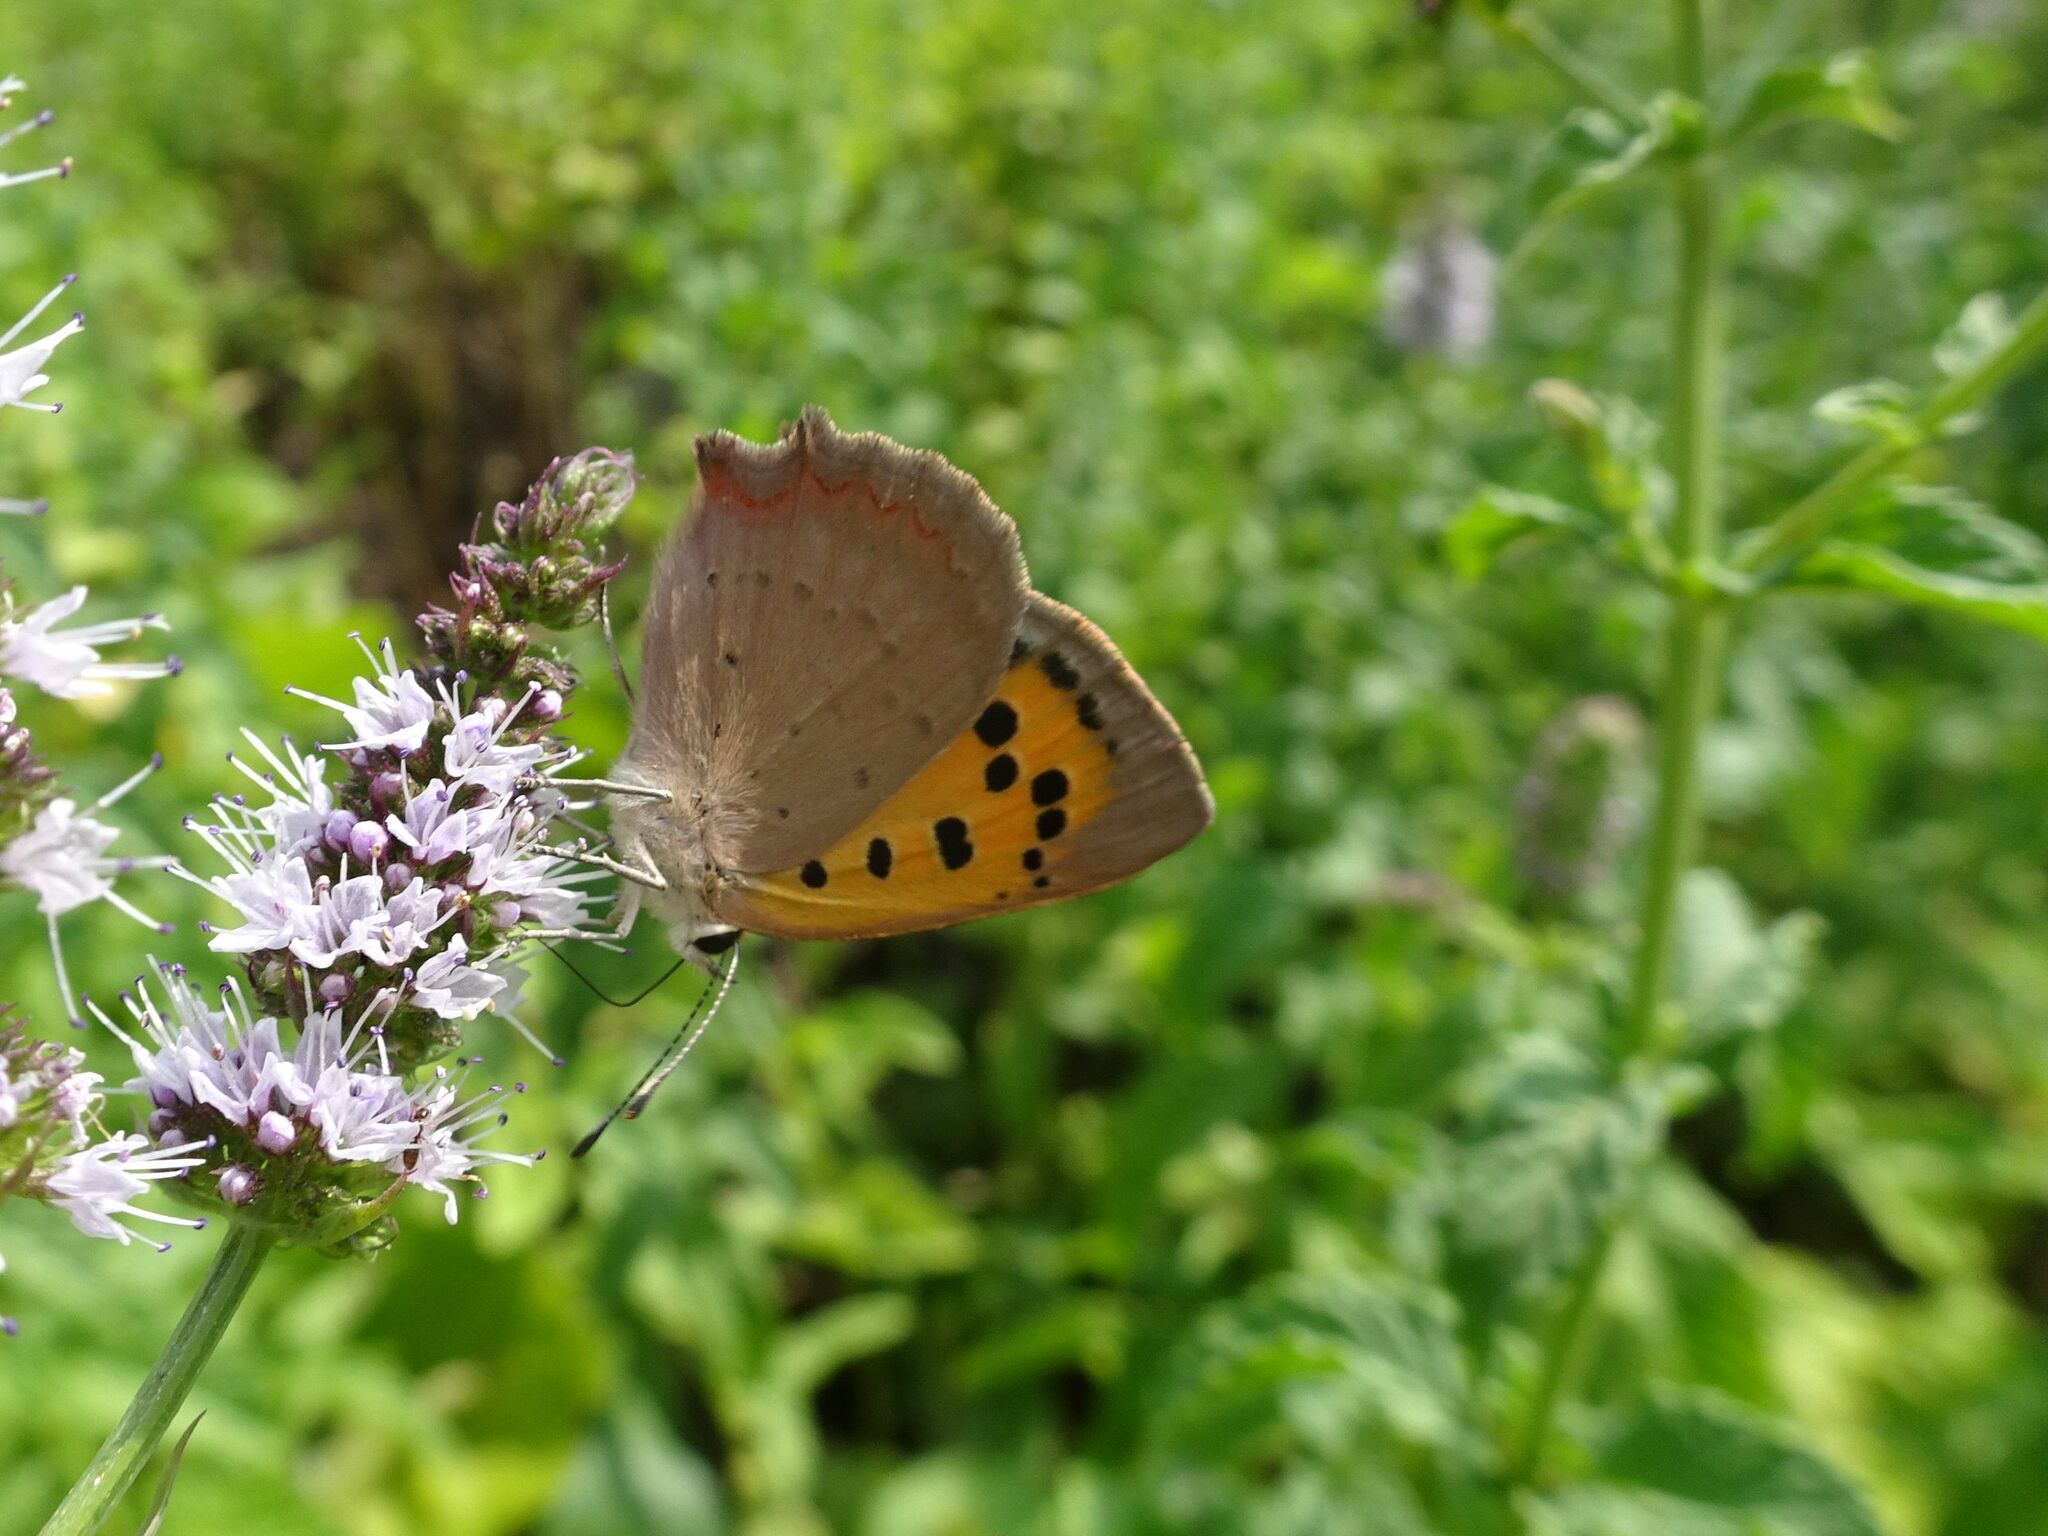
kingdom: Animalia
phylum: Arthropoda
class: Insecta
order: Lepidoptera
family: Lycaenidae
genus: Lycaena
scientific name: Lycaena phlaeas
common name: Small copper
